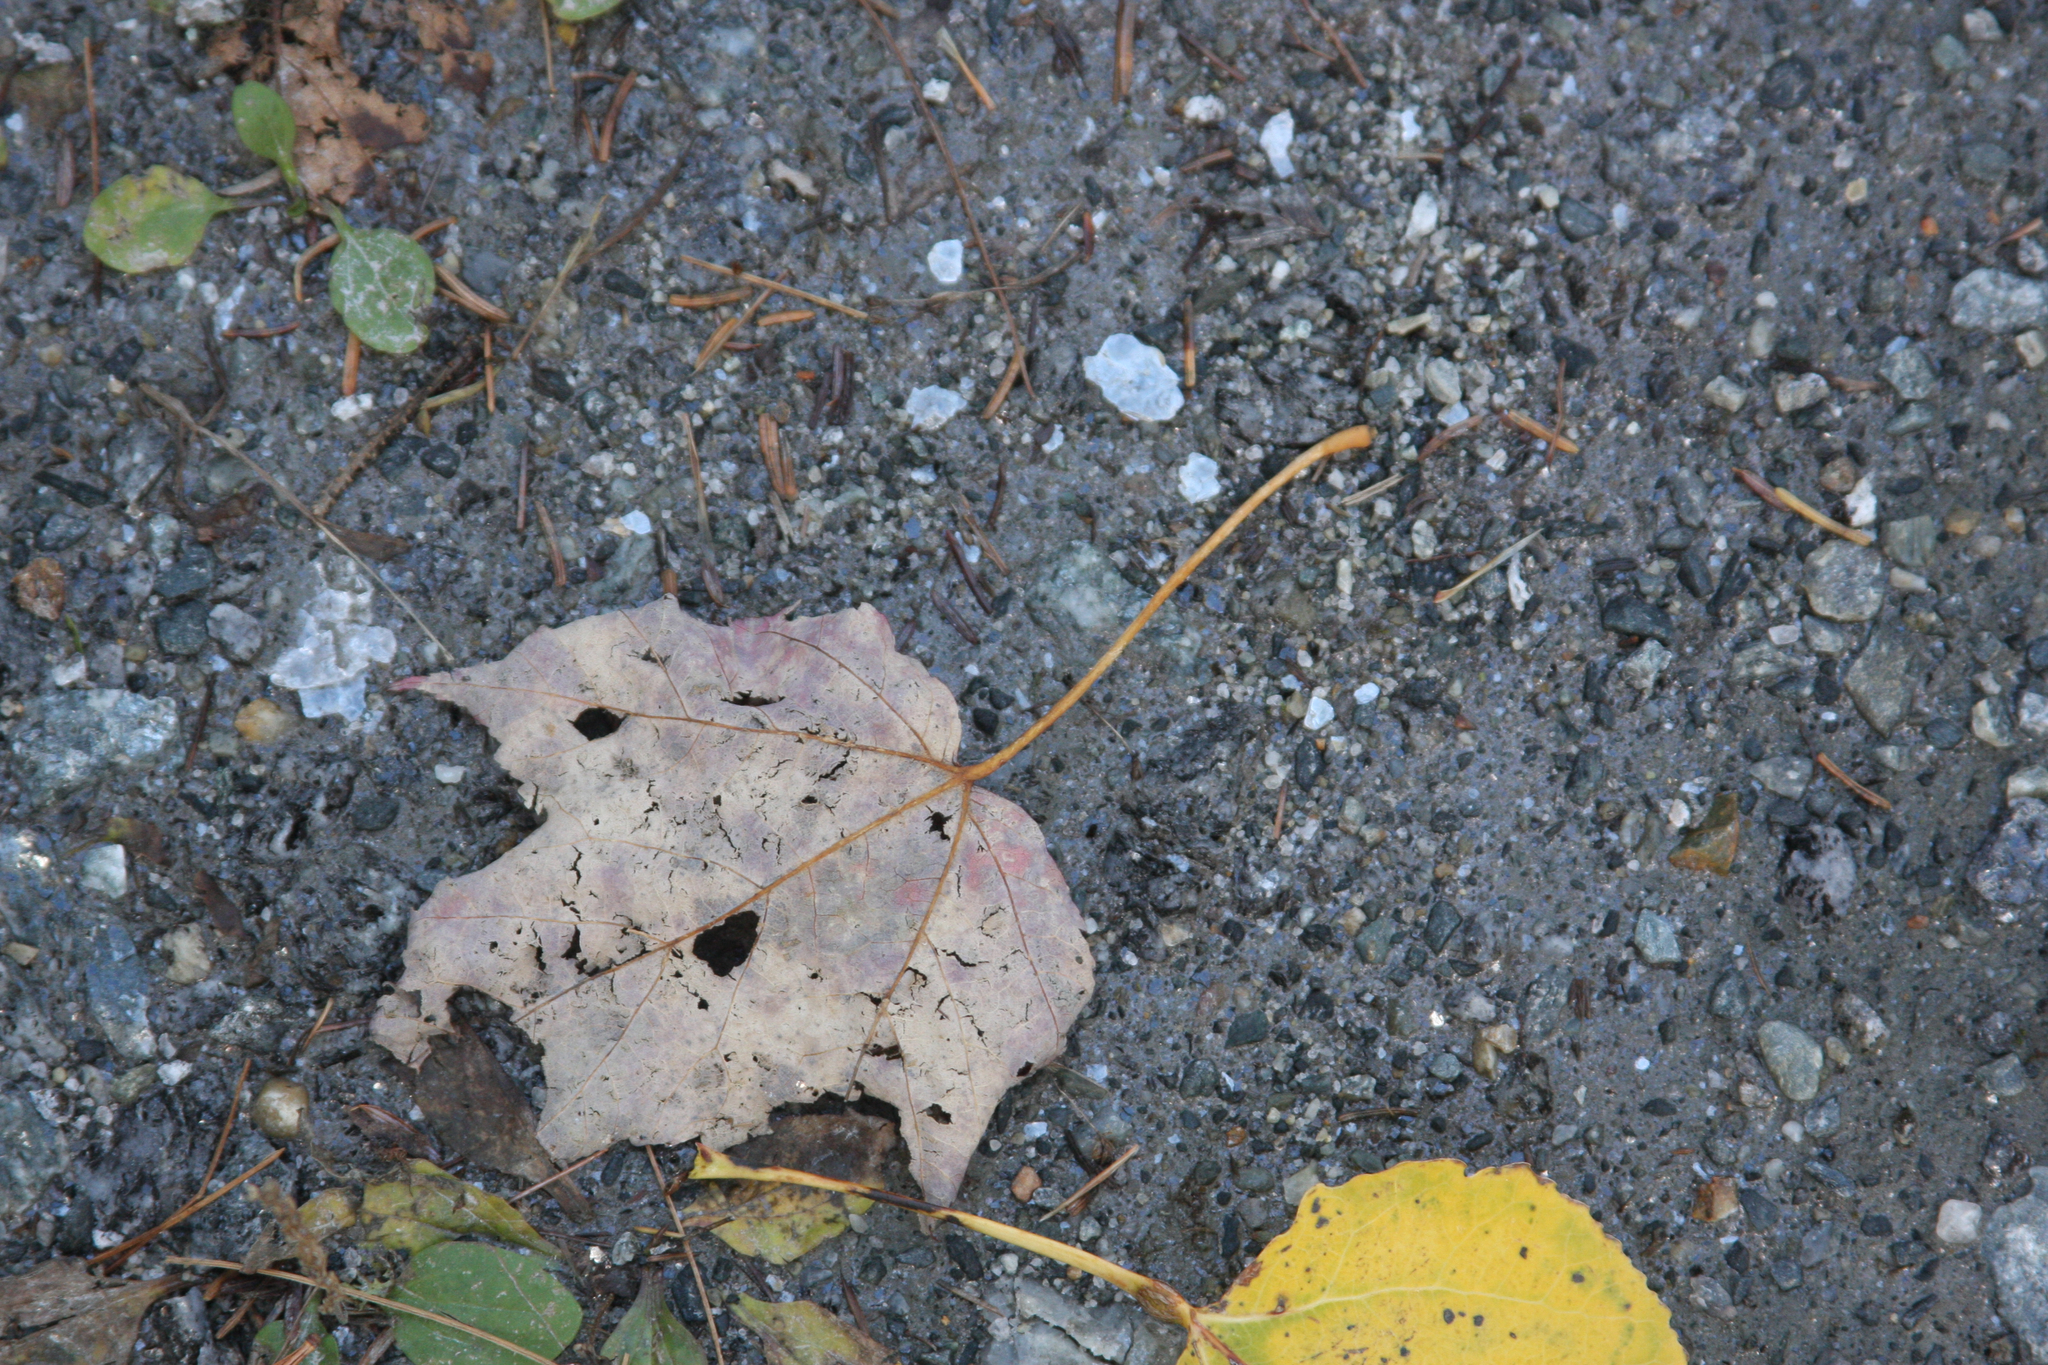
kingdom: Plantae
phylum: Tracheophyta
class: Magnoliopsida
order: Sapindales
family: Sapindaceae
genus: Acer
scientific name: Acer rubrum
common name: Red maple
